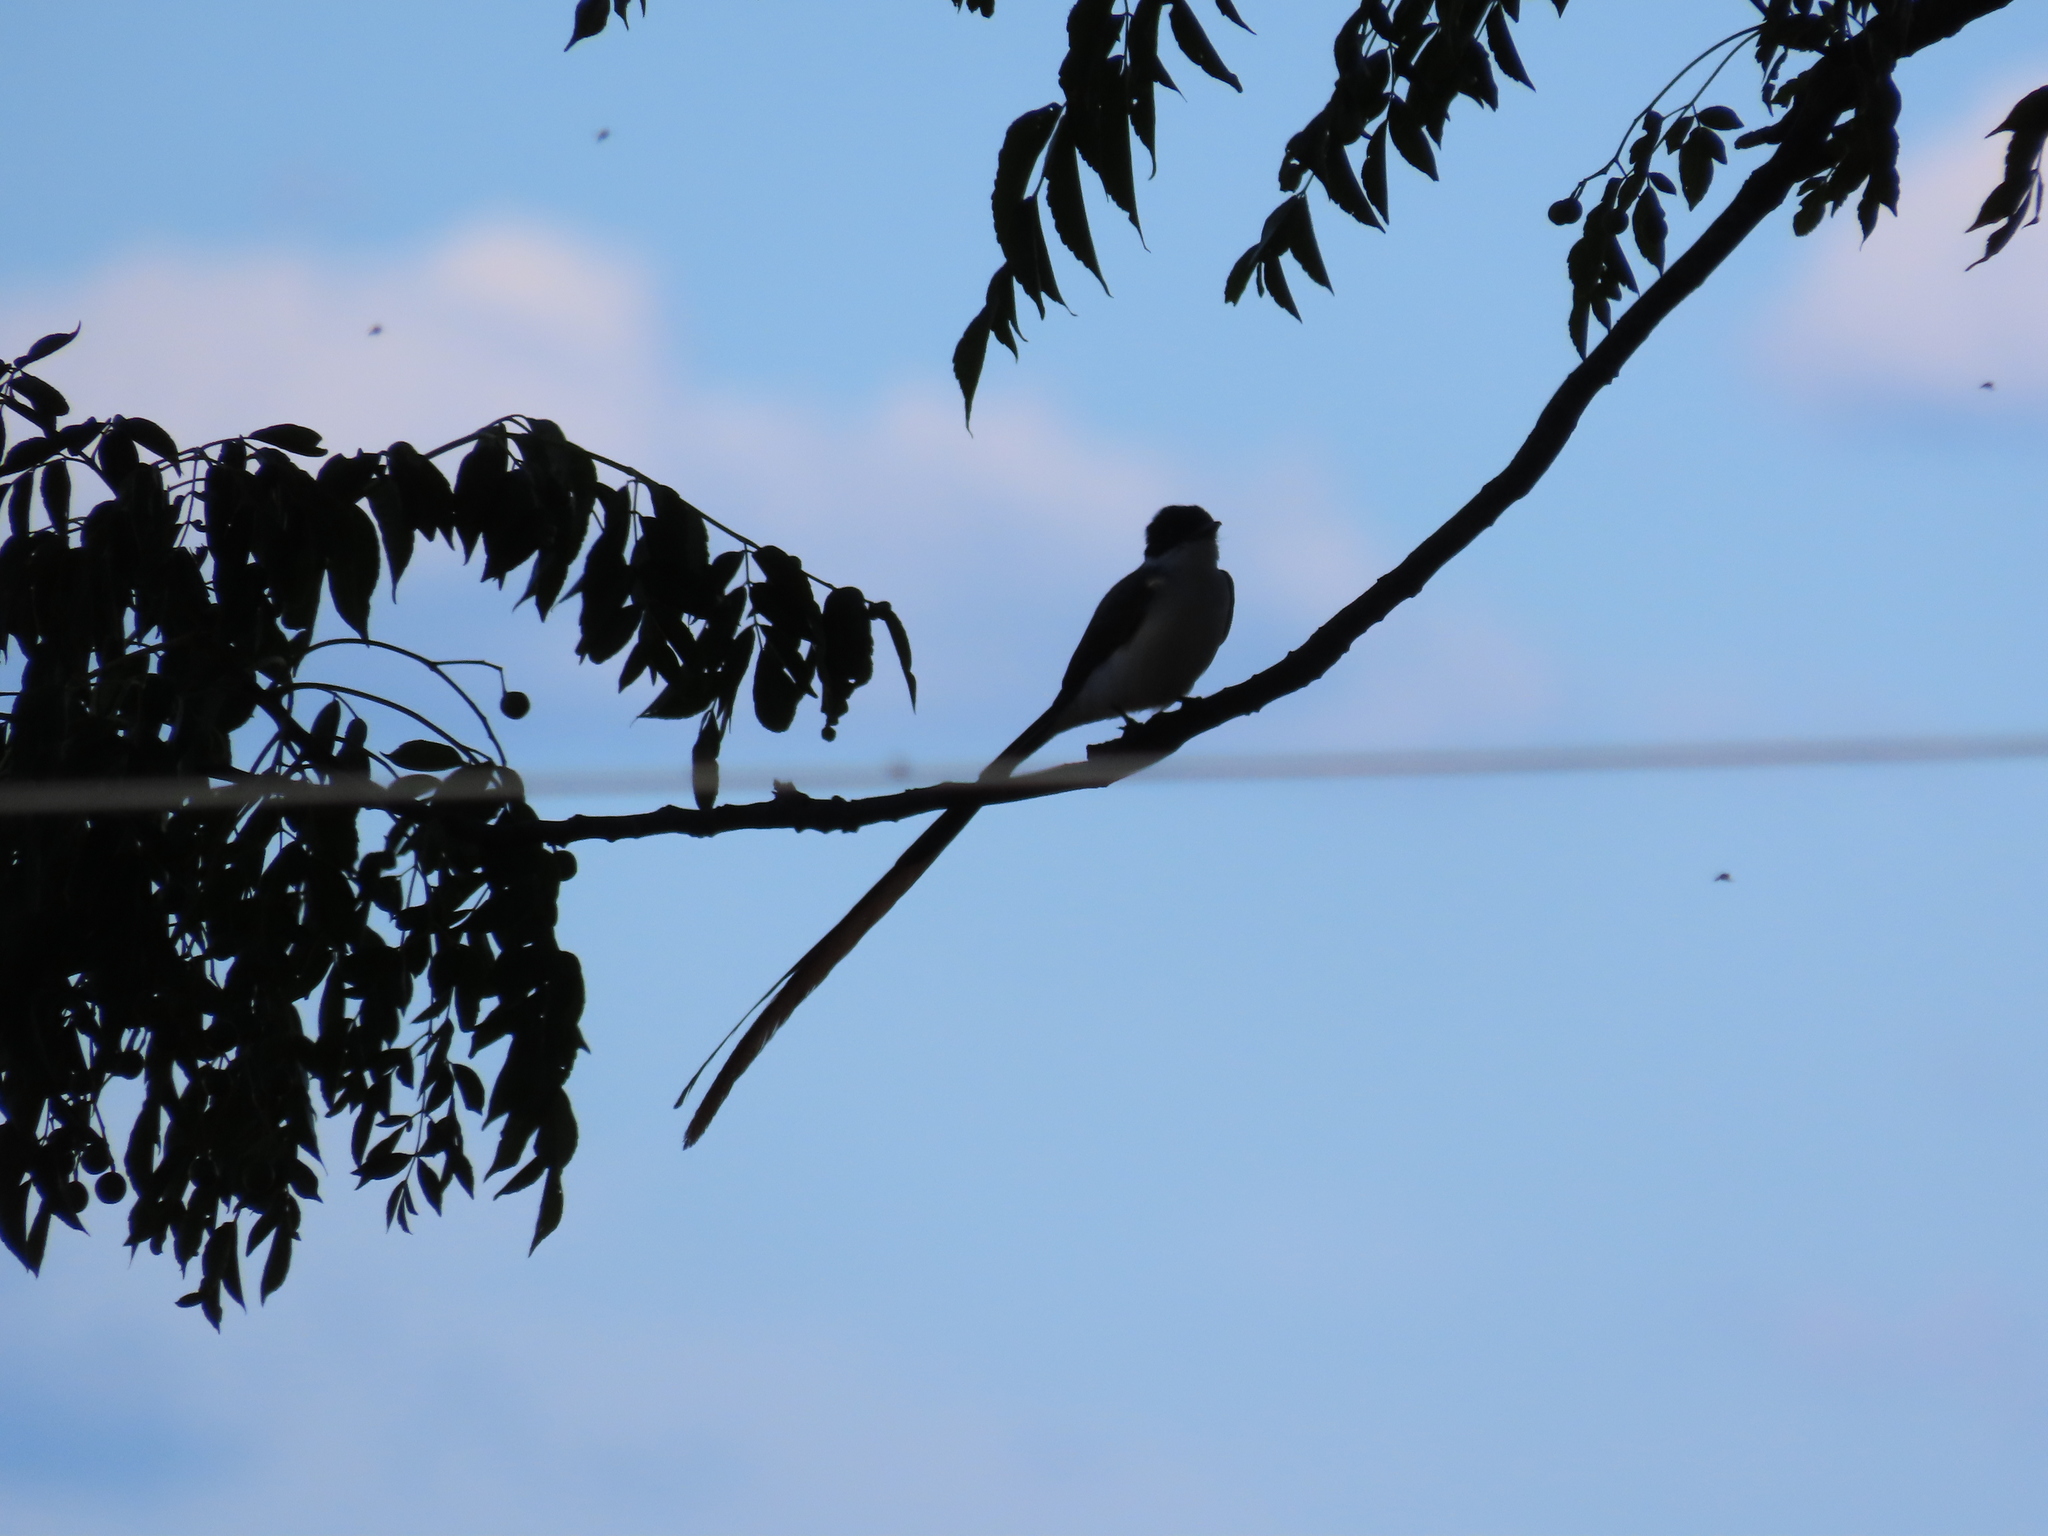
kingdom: Animalia
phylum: Chordata
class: Aves
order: Passeriformes
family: Tyrannidae
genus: Tyrannus
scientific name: Tyrannus savana
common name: Fork-tailed flycatcher
